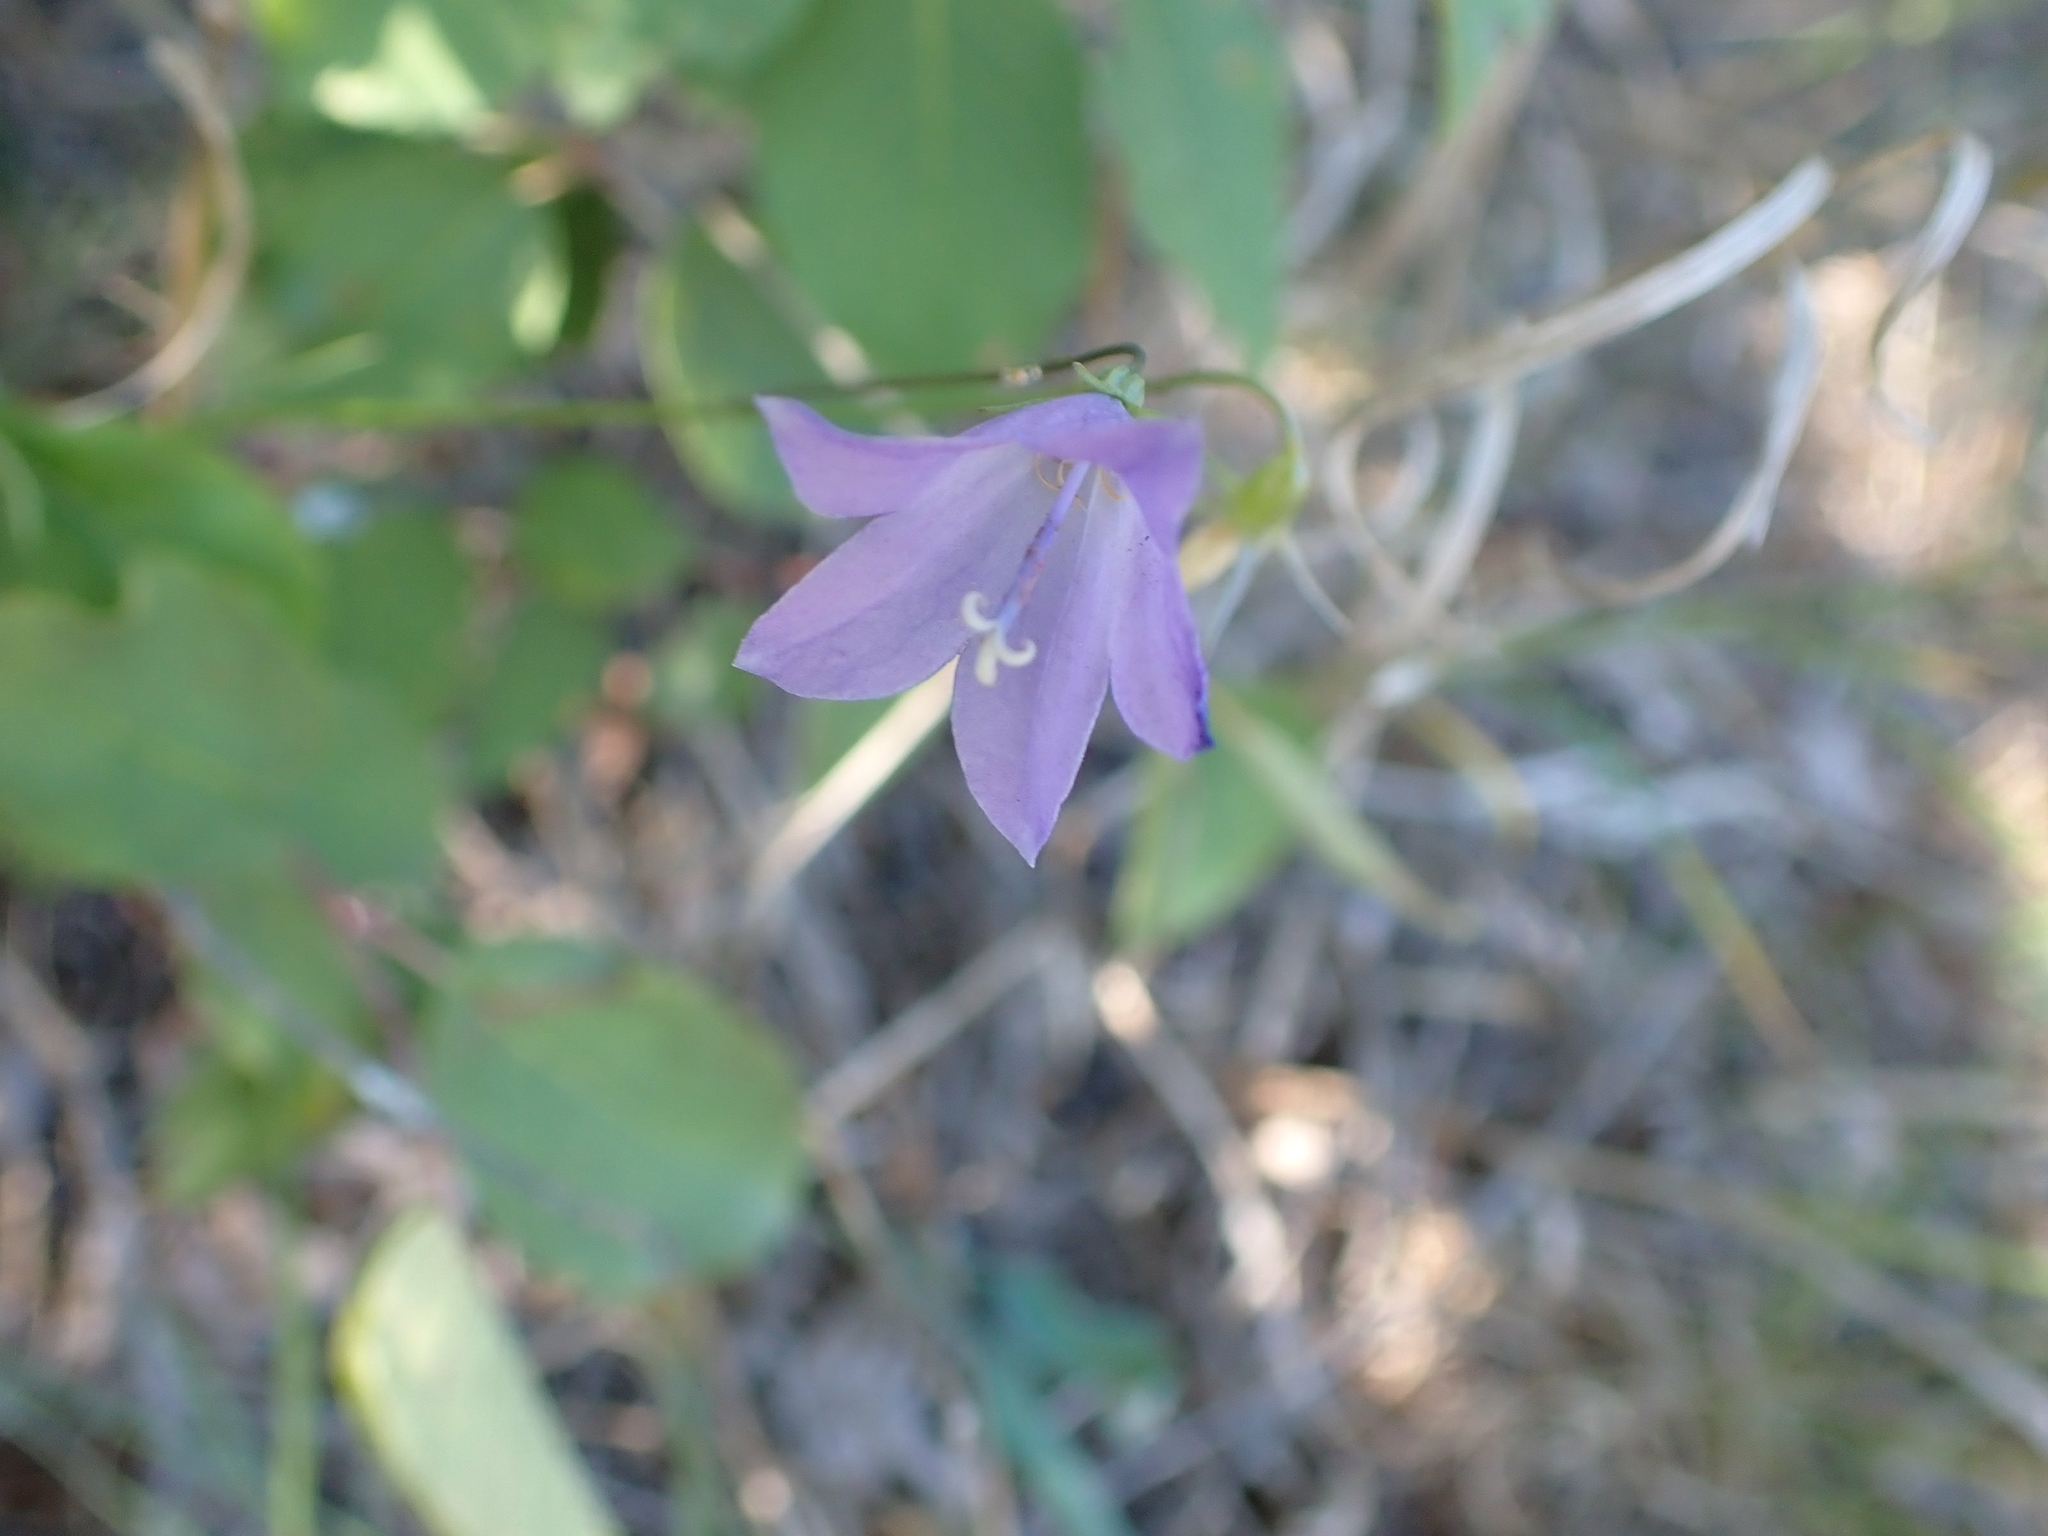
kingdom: Plantae
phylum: Tracheophyta
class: Magnoliopsida
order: Asterales
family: Campanulaceae
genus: Campanula
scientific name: Campanula petiolata
